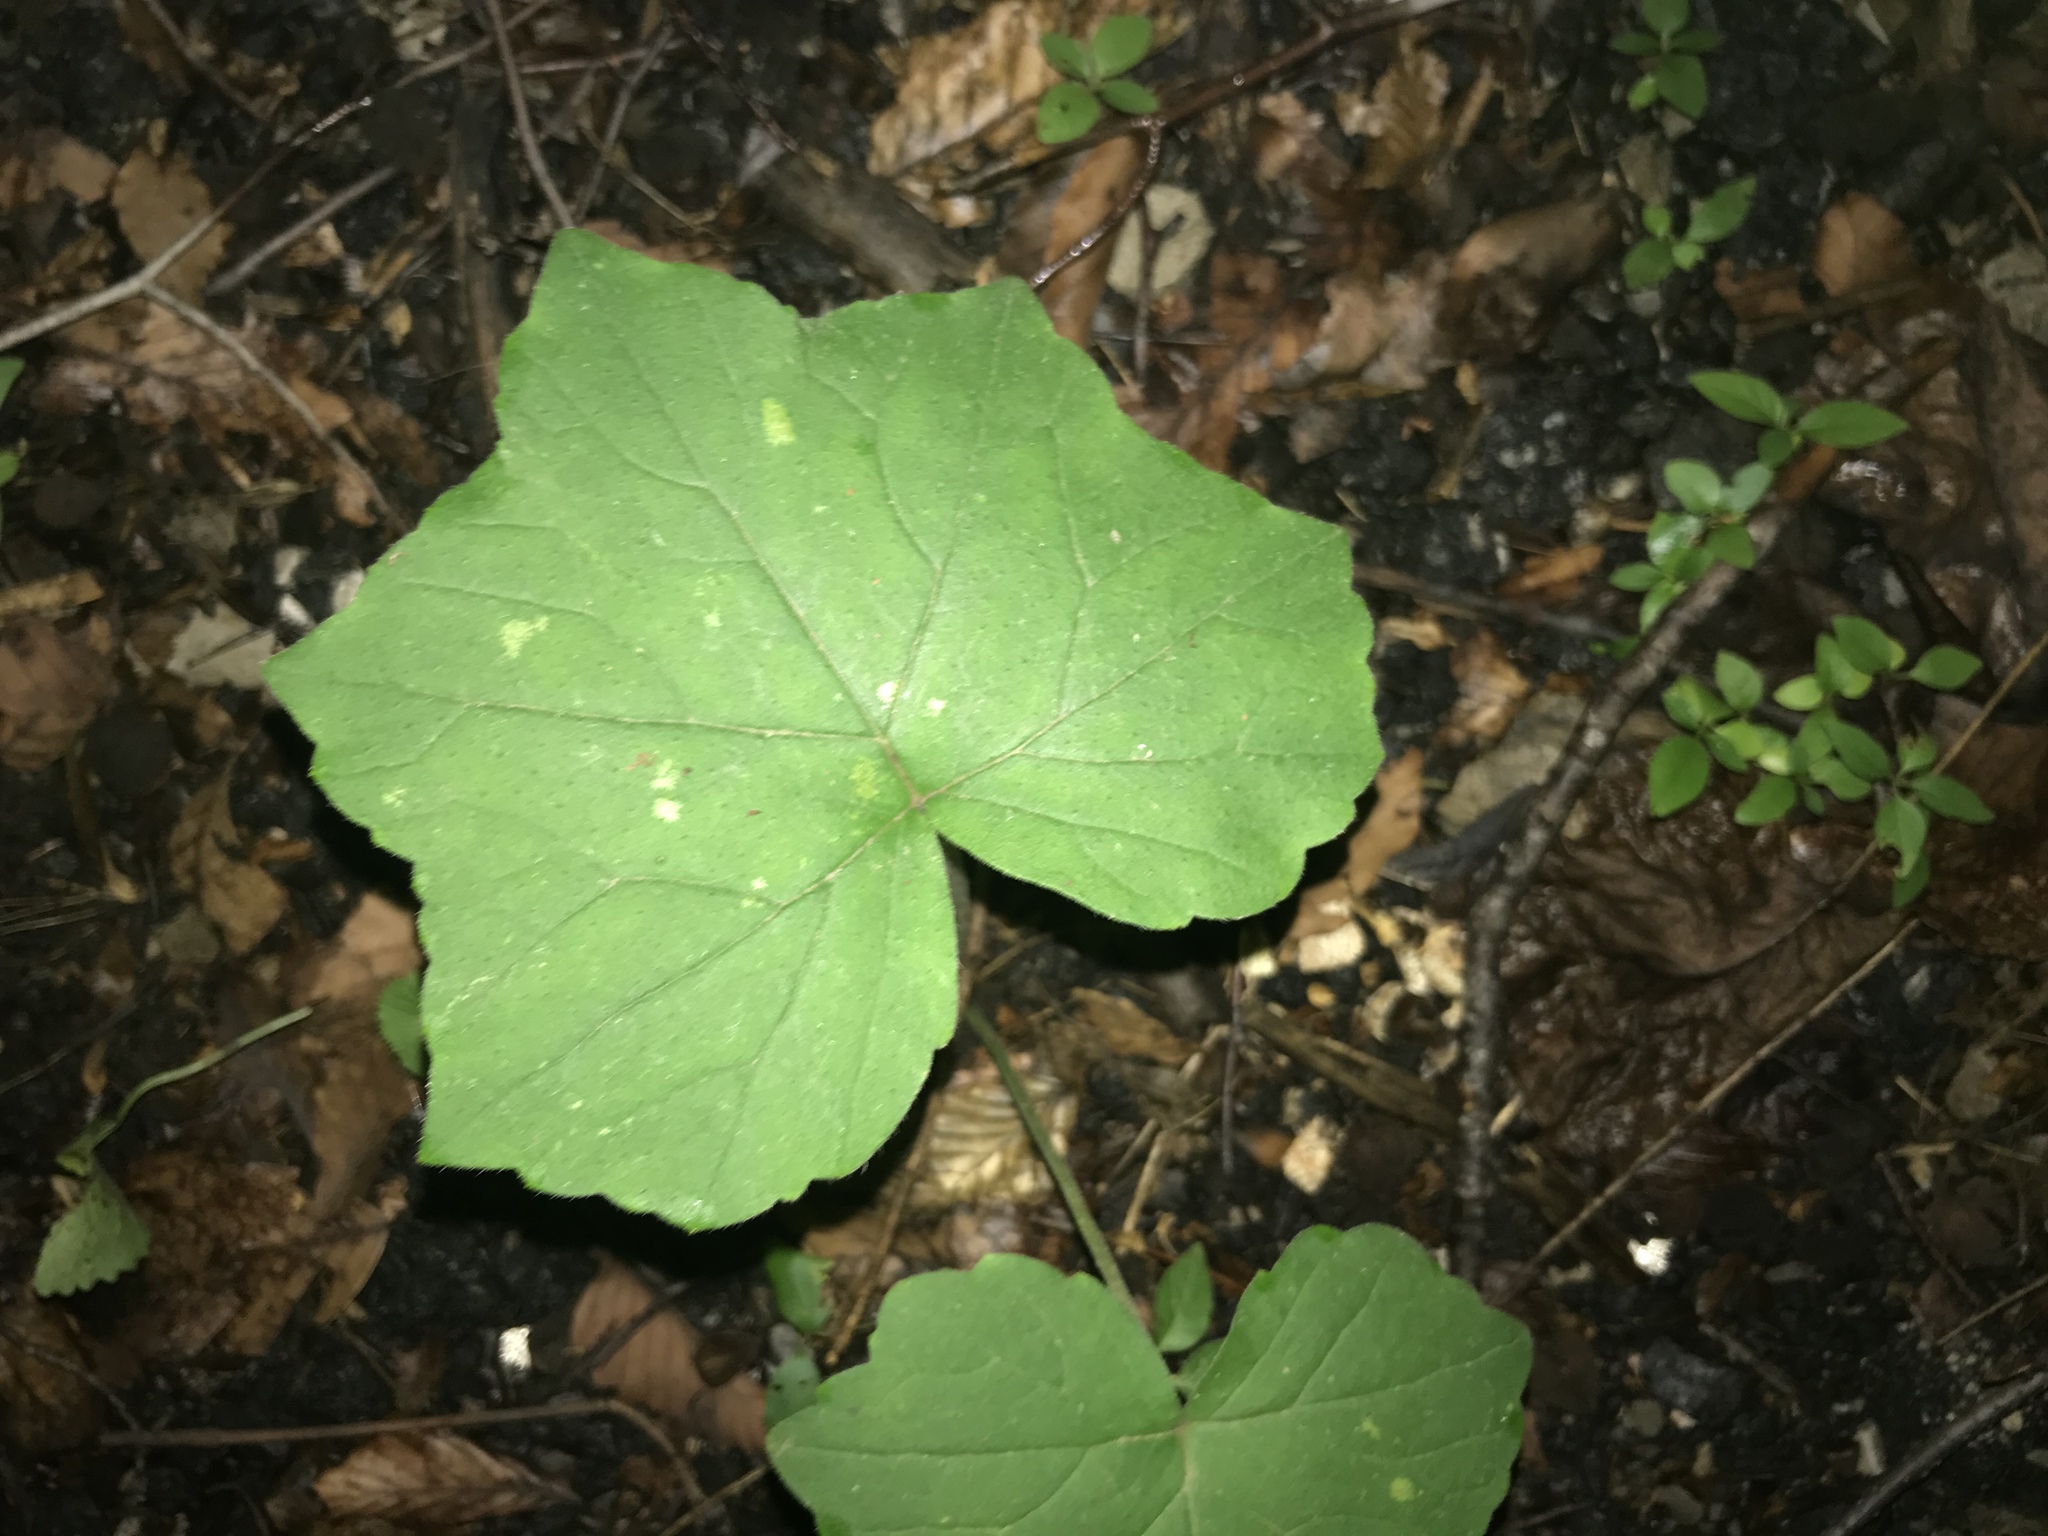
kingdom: Plantae
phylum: Tracheophyta
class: Magnoliopsida
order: Boraginales
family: Hydrophyllaceae
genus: Hydrophyllum
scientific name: Hydrophyllum canadense
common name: Canada waterleaf
